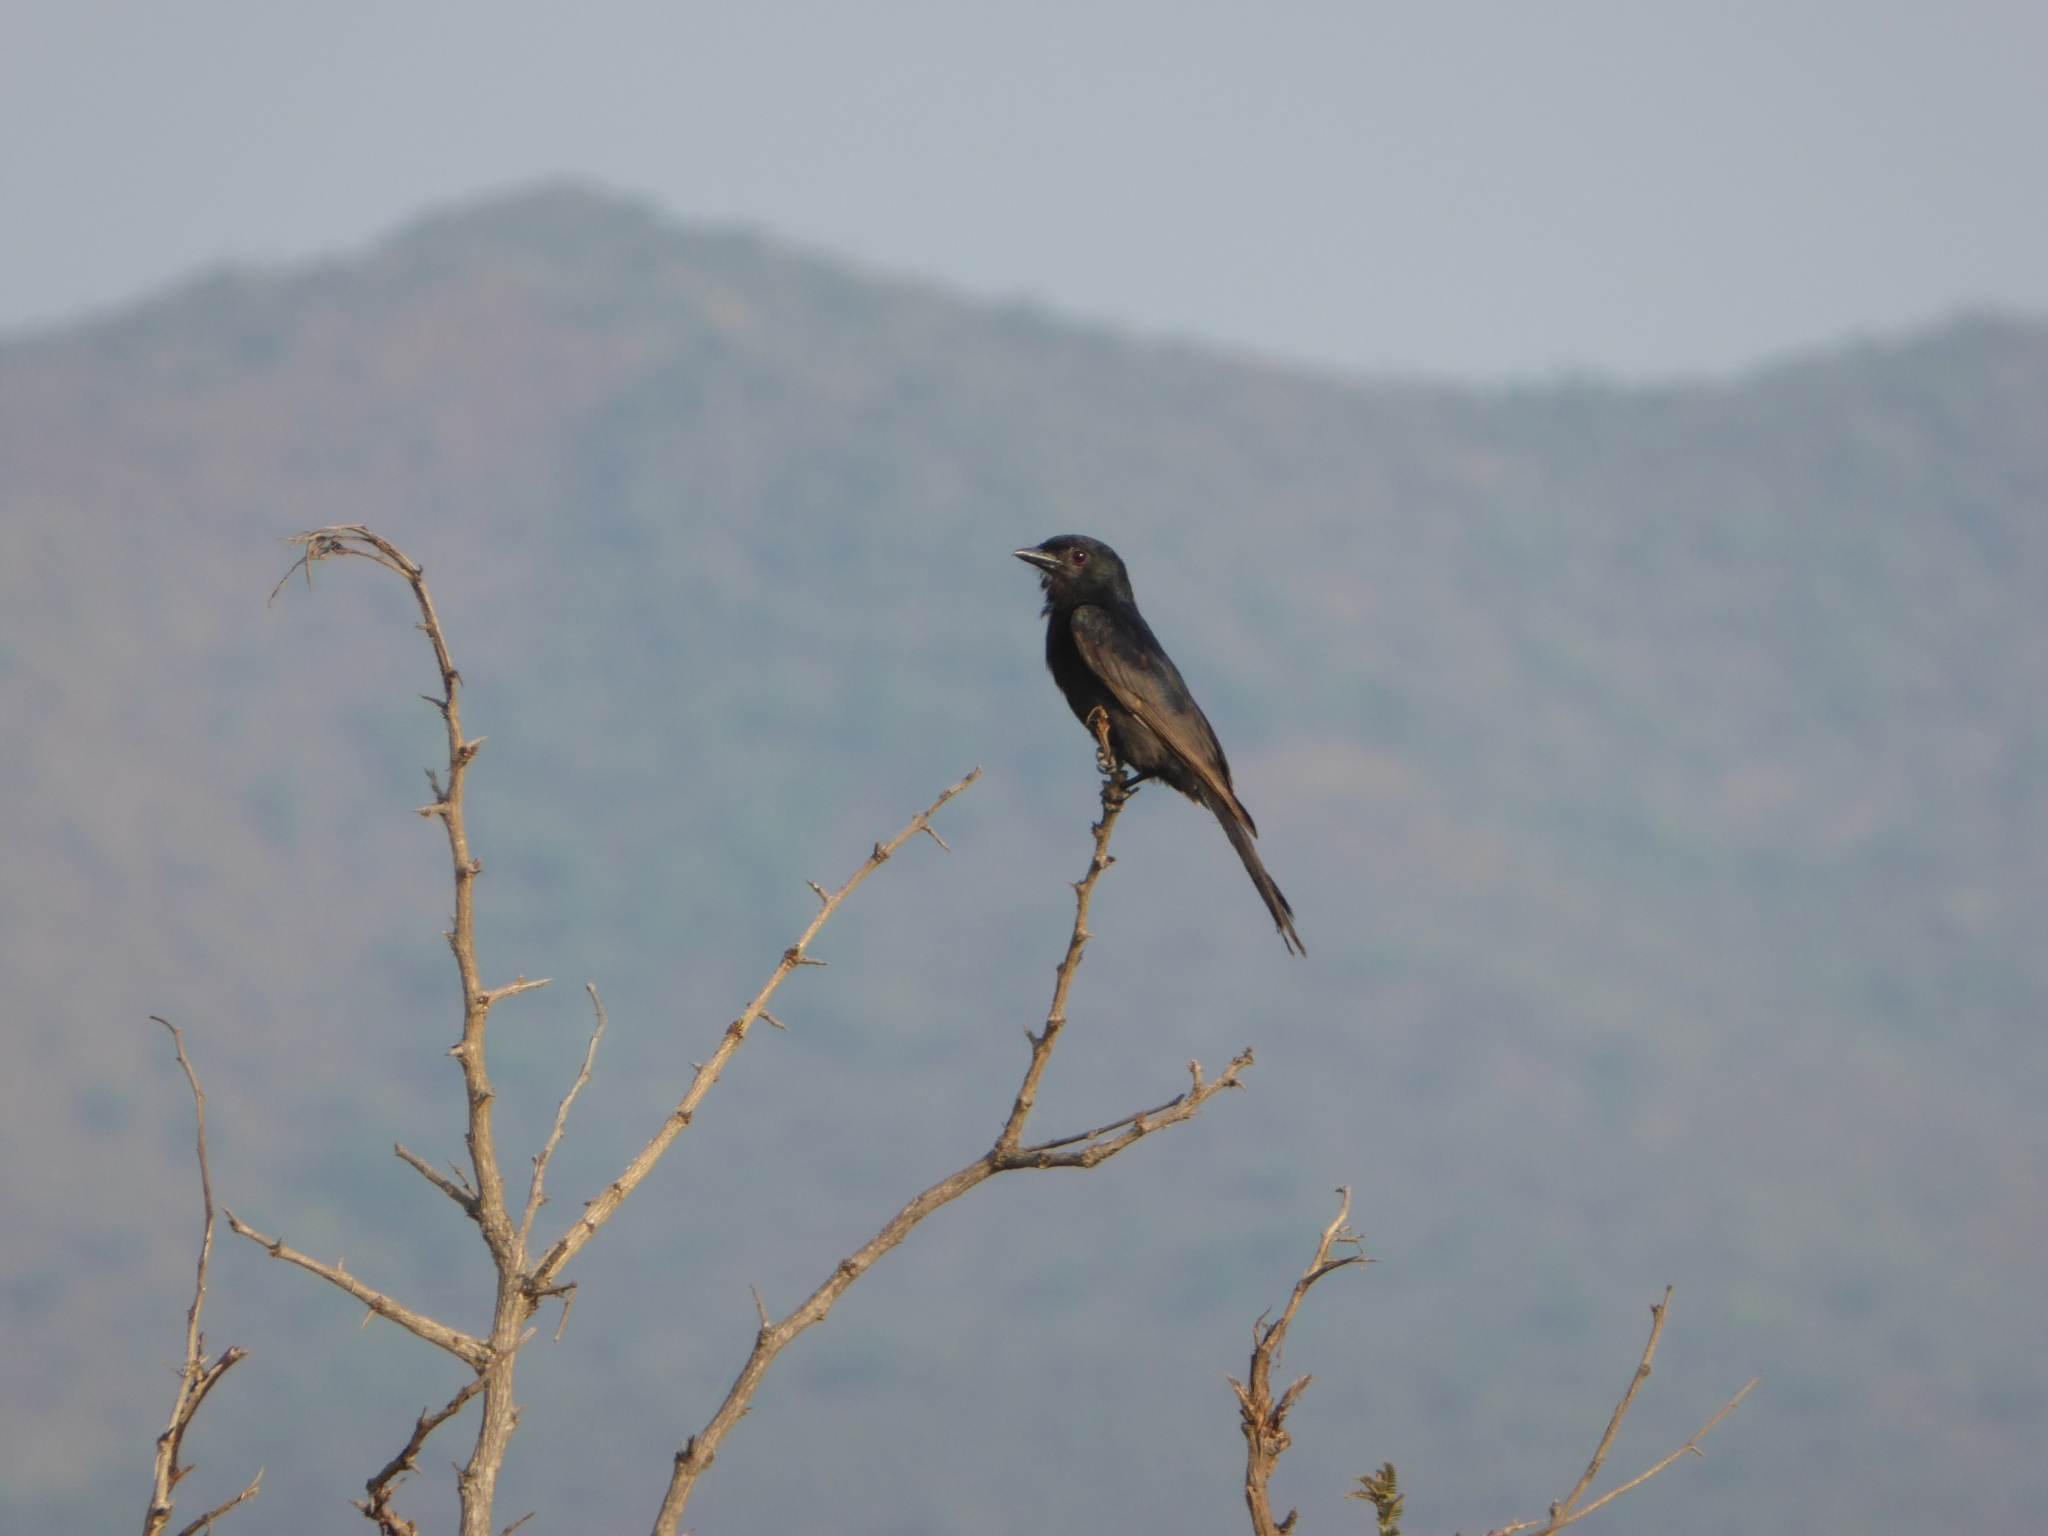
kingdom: Animalia
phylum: Chordata
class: Aves
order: Passeriformes
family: Dicruridae
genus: Dicrurus
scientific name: Dicrurus adsimilis
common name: Fork-tailed drongo
